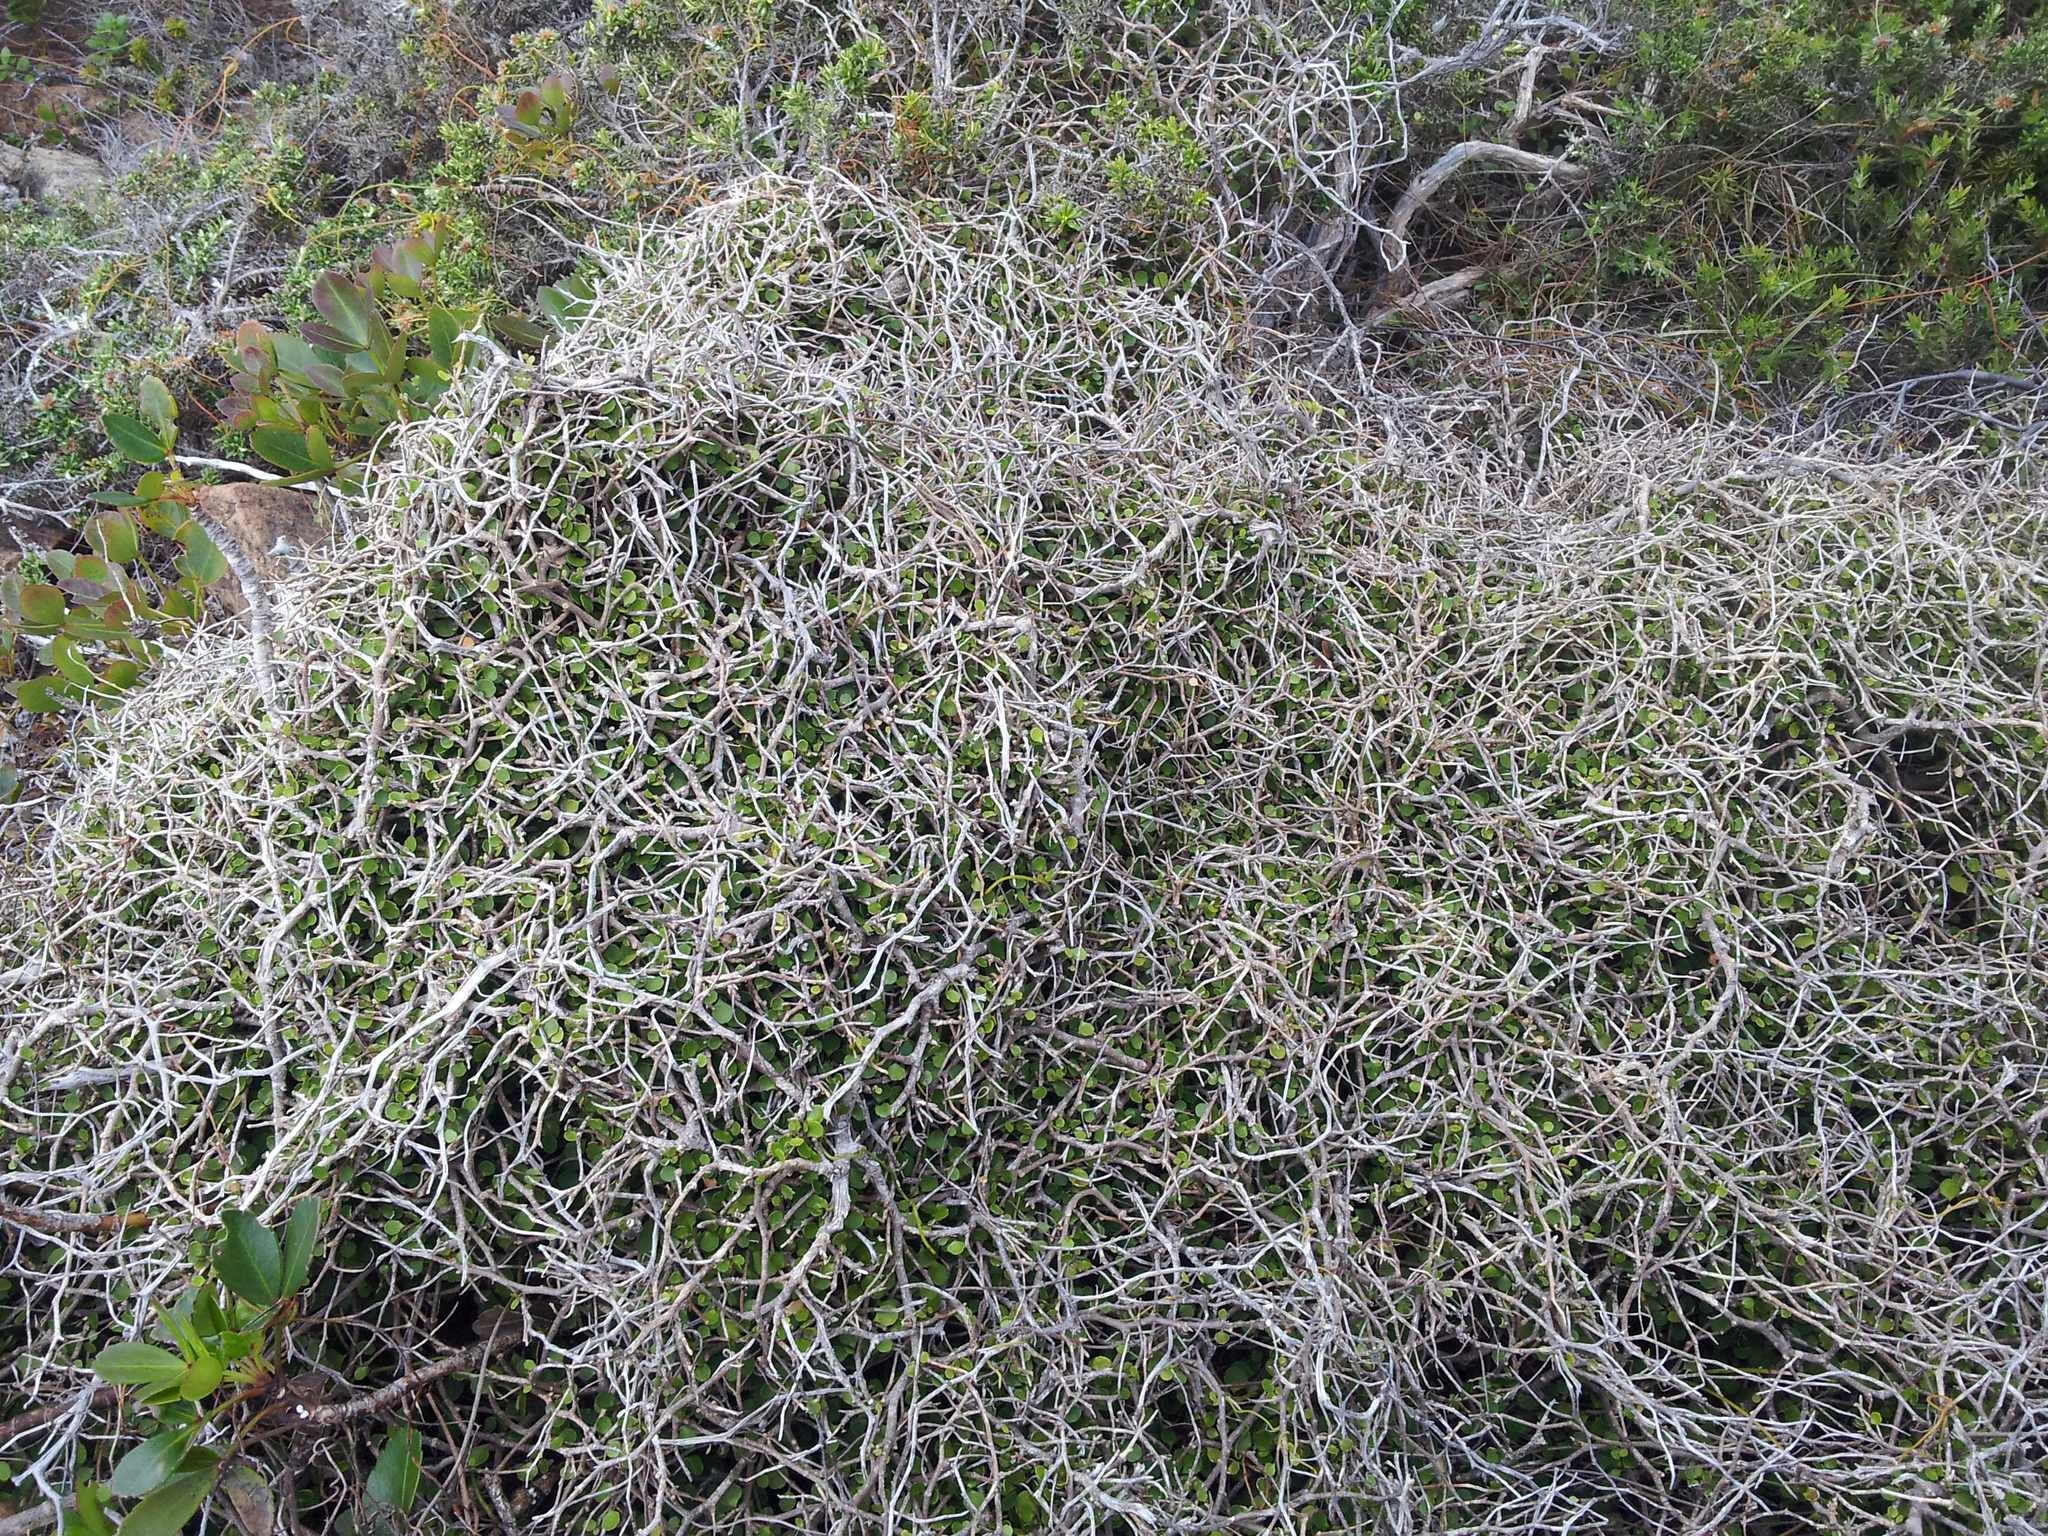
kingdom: Plantae
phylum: Tracheophyta
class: Magnoliopsida
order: Malpighiales
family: Violaceae
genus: Melicytus
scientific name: Melicytus micranthus
